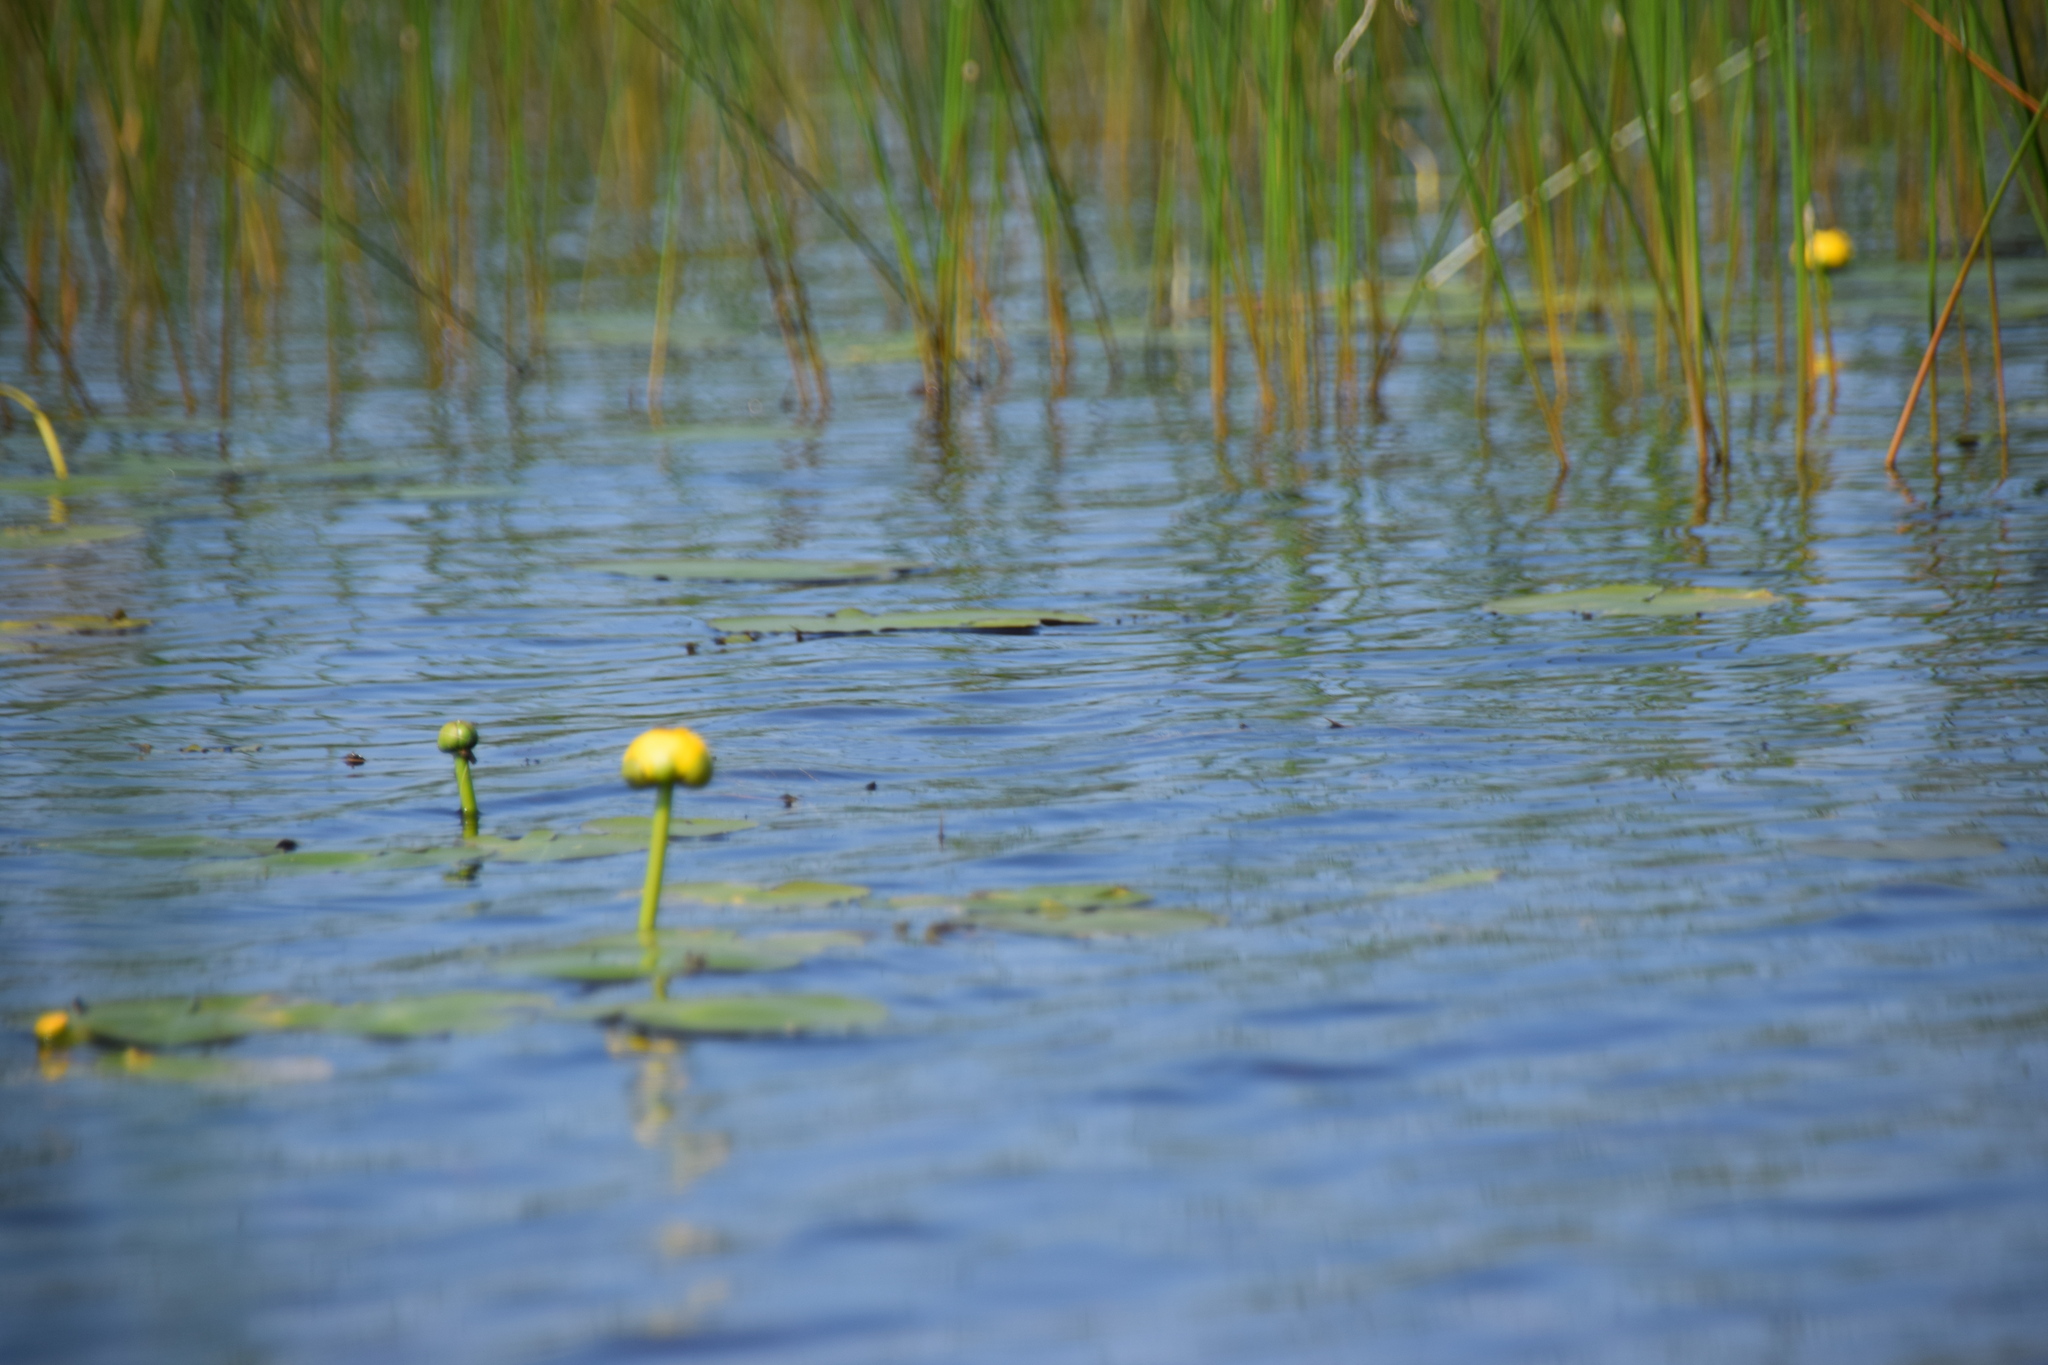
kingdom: Plantae
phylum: Tracheophyta
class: Magnoliopsida
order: Nymphaeales
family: Nymphaeaceae
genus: Nuphar
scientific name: Nuphar variegata
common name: Beaver-root
